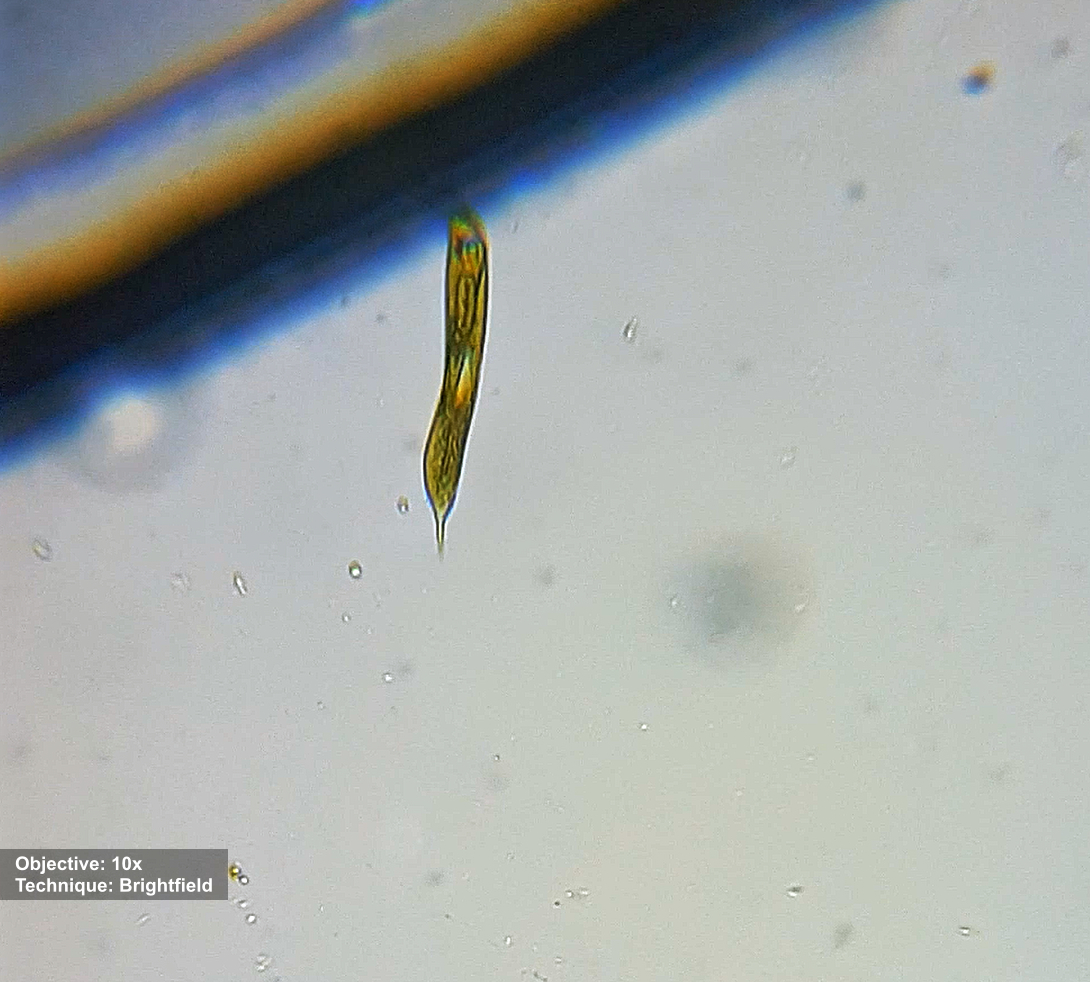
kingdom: Protozoa
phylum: Euglenozoa
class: Euglenoidea
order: Euglenida
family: Phacidae
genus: Lepocinclis
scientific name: Lepocinclis oxyuris
